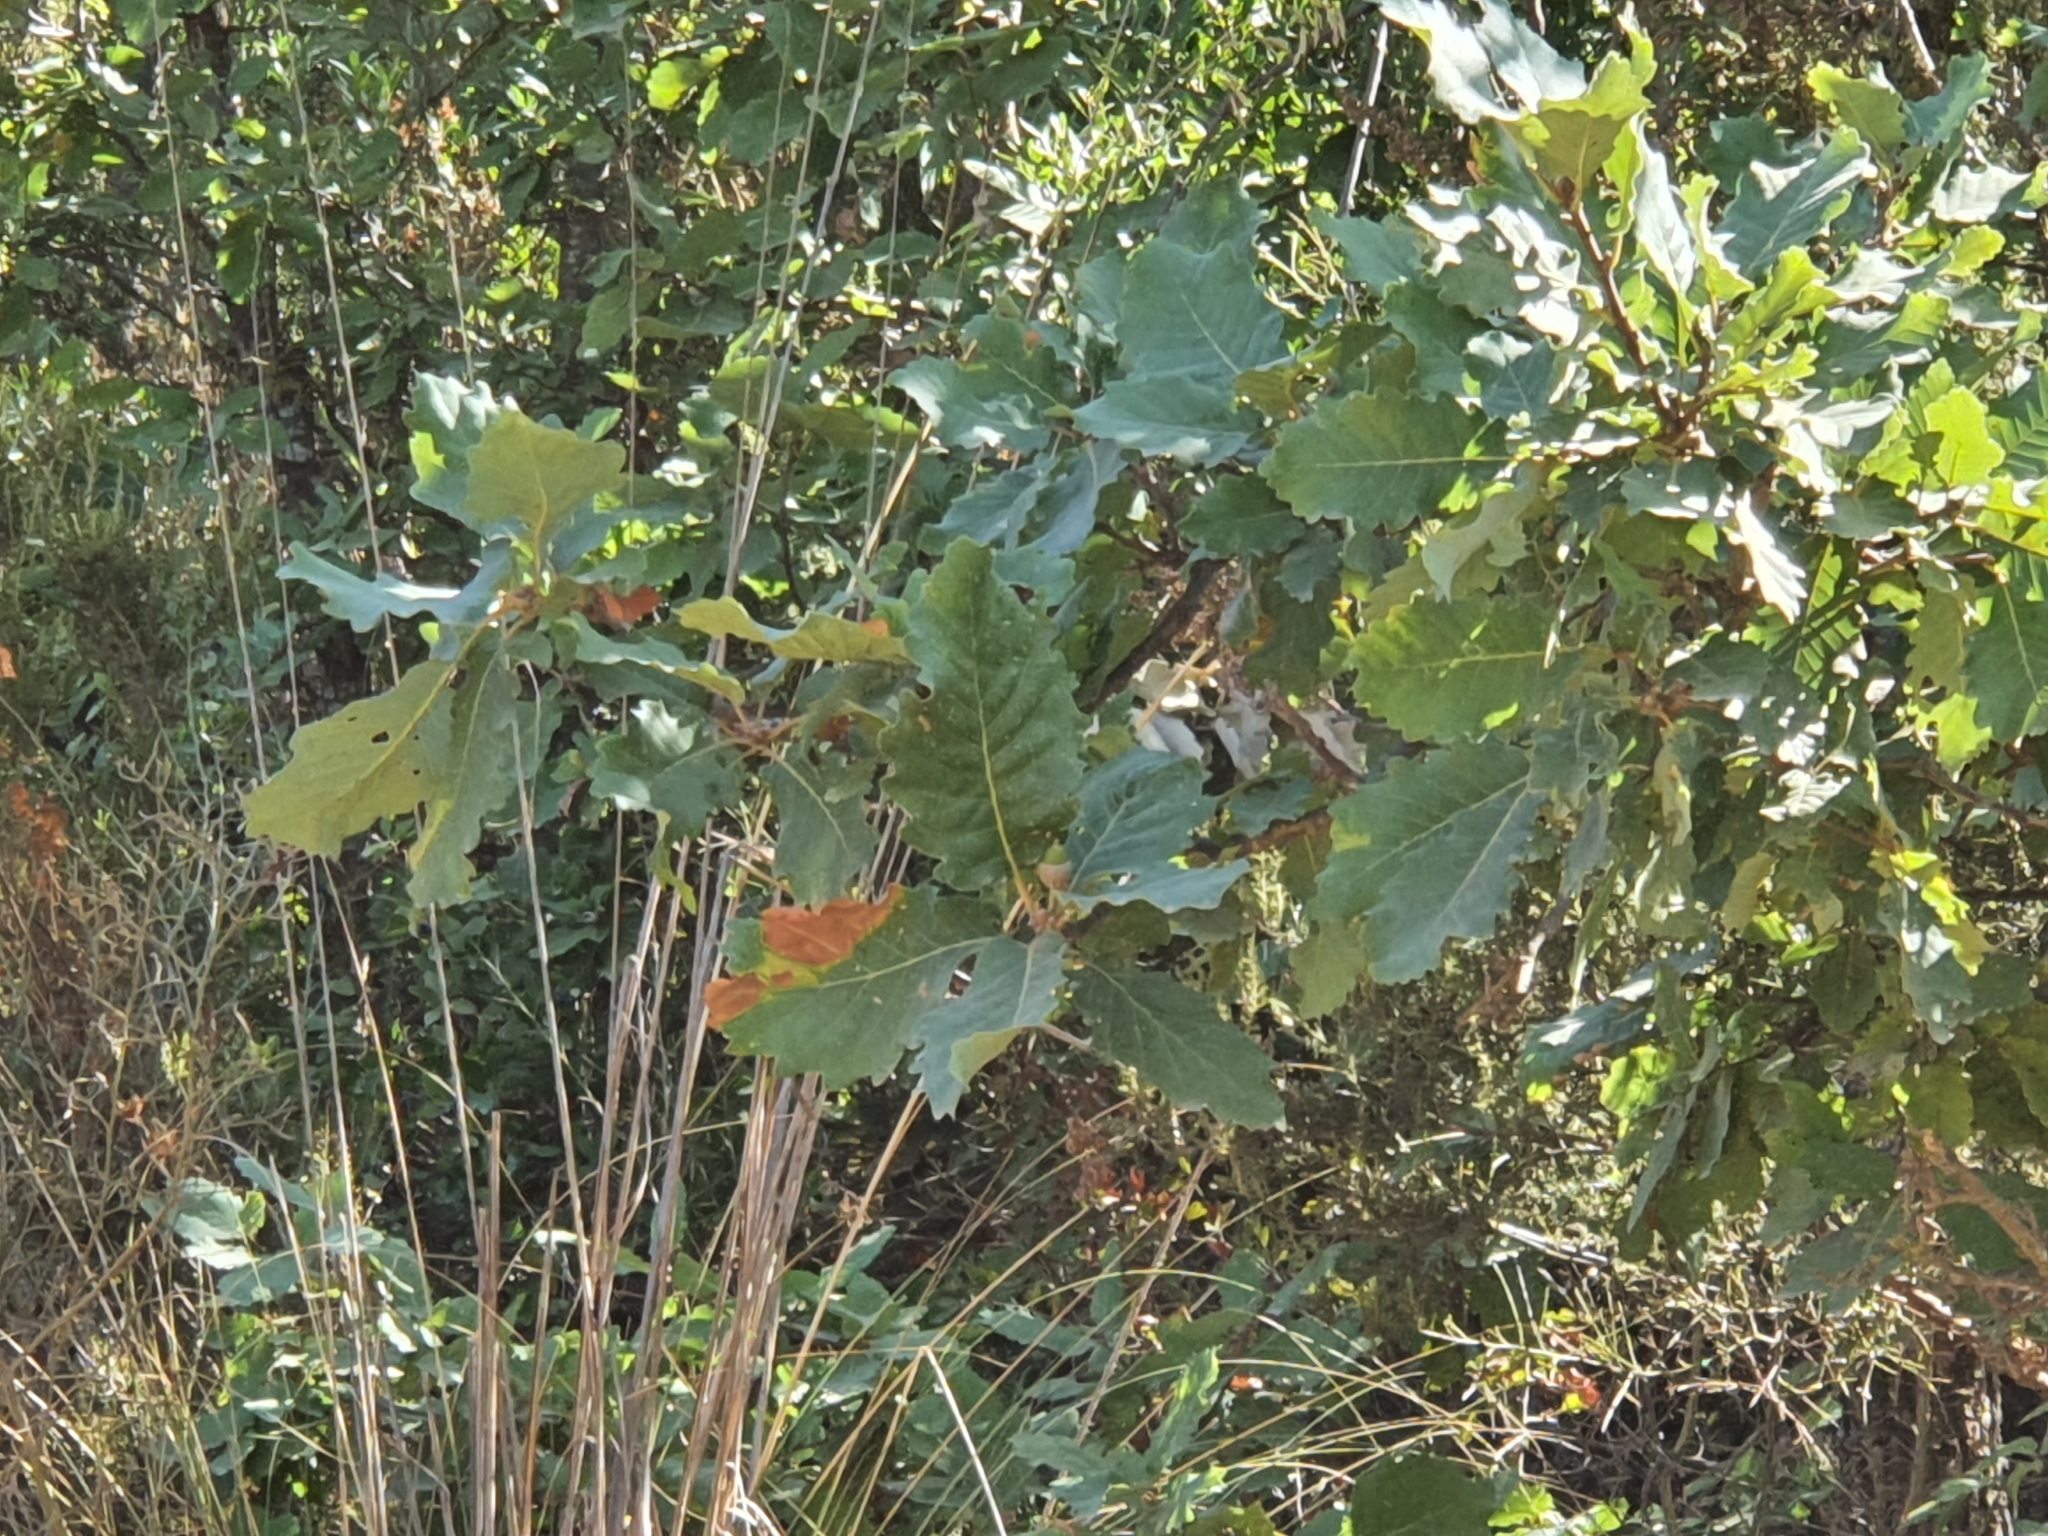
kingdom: Plantae
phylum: Tracheophyta
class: Magnoliopsida
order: Fagales
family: Fagaceae
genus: Quercus
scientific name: Quercus canariensis
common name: Algerian oak
